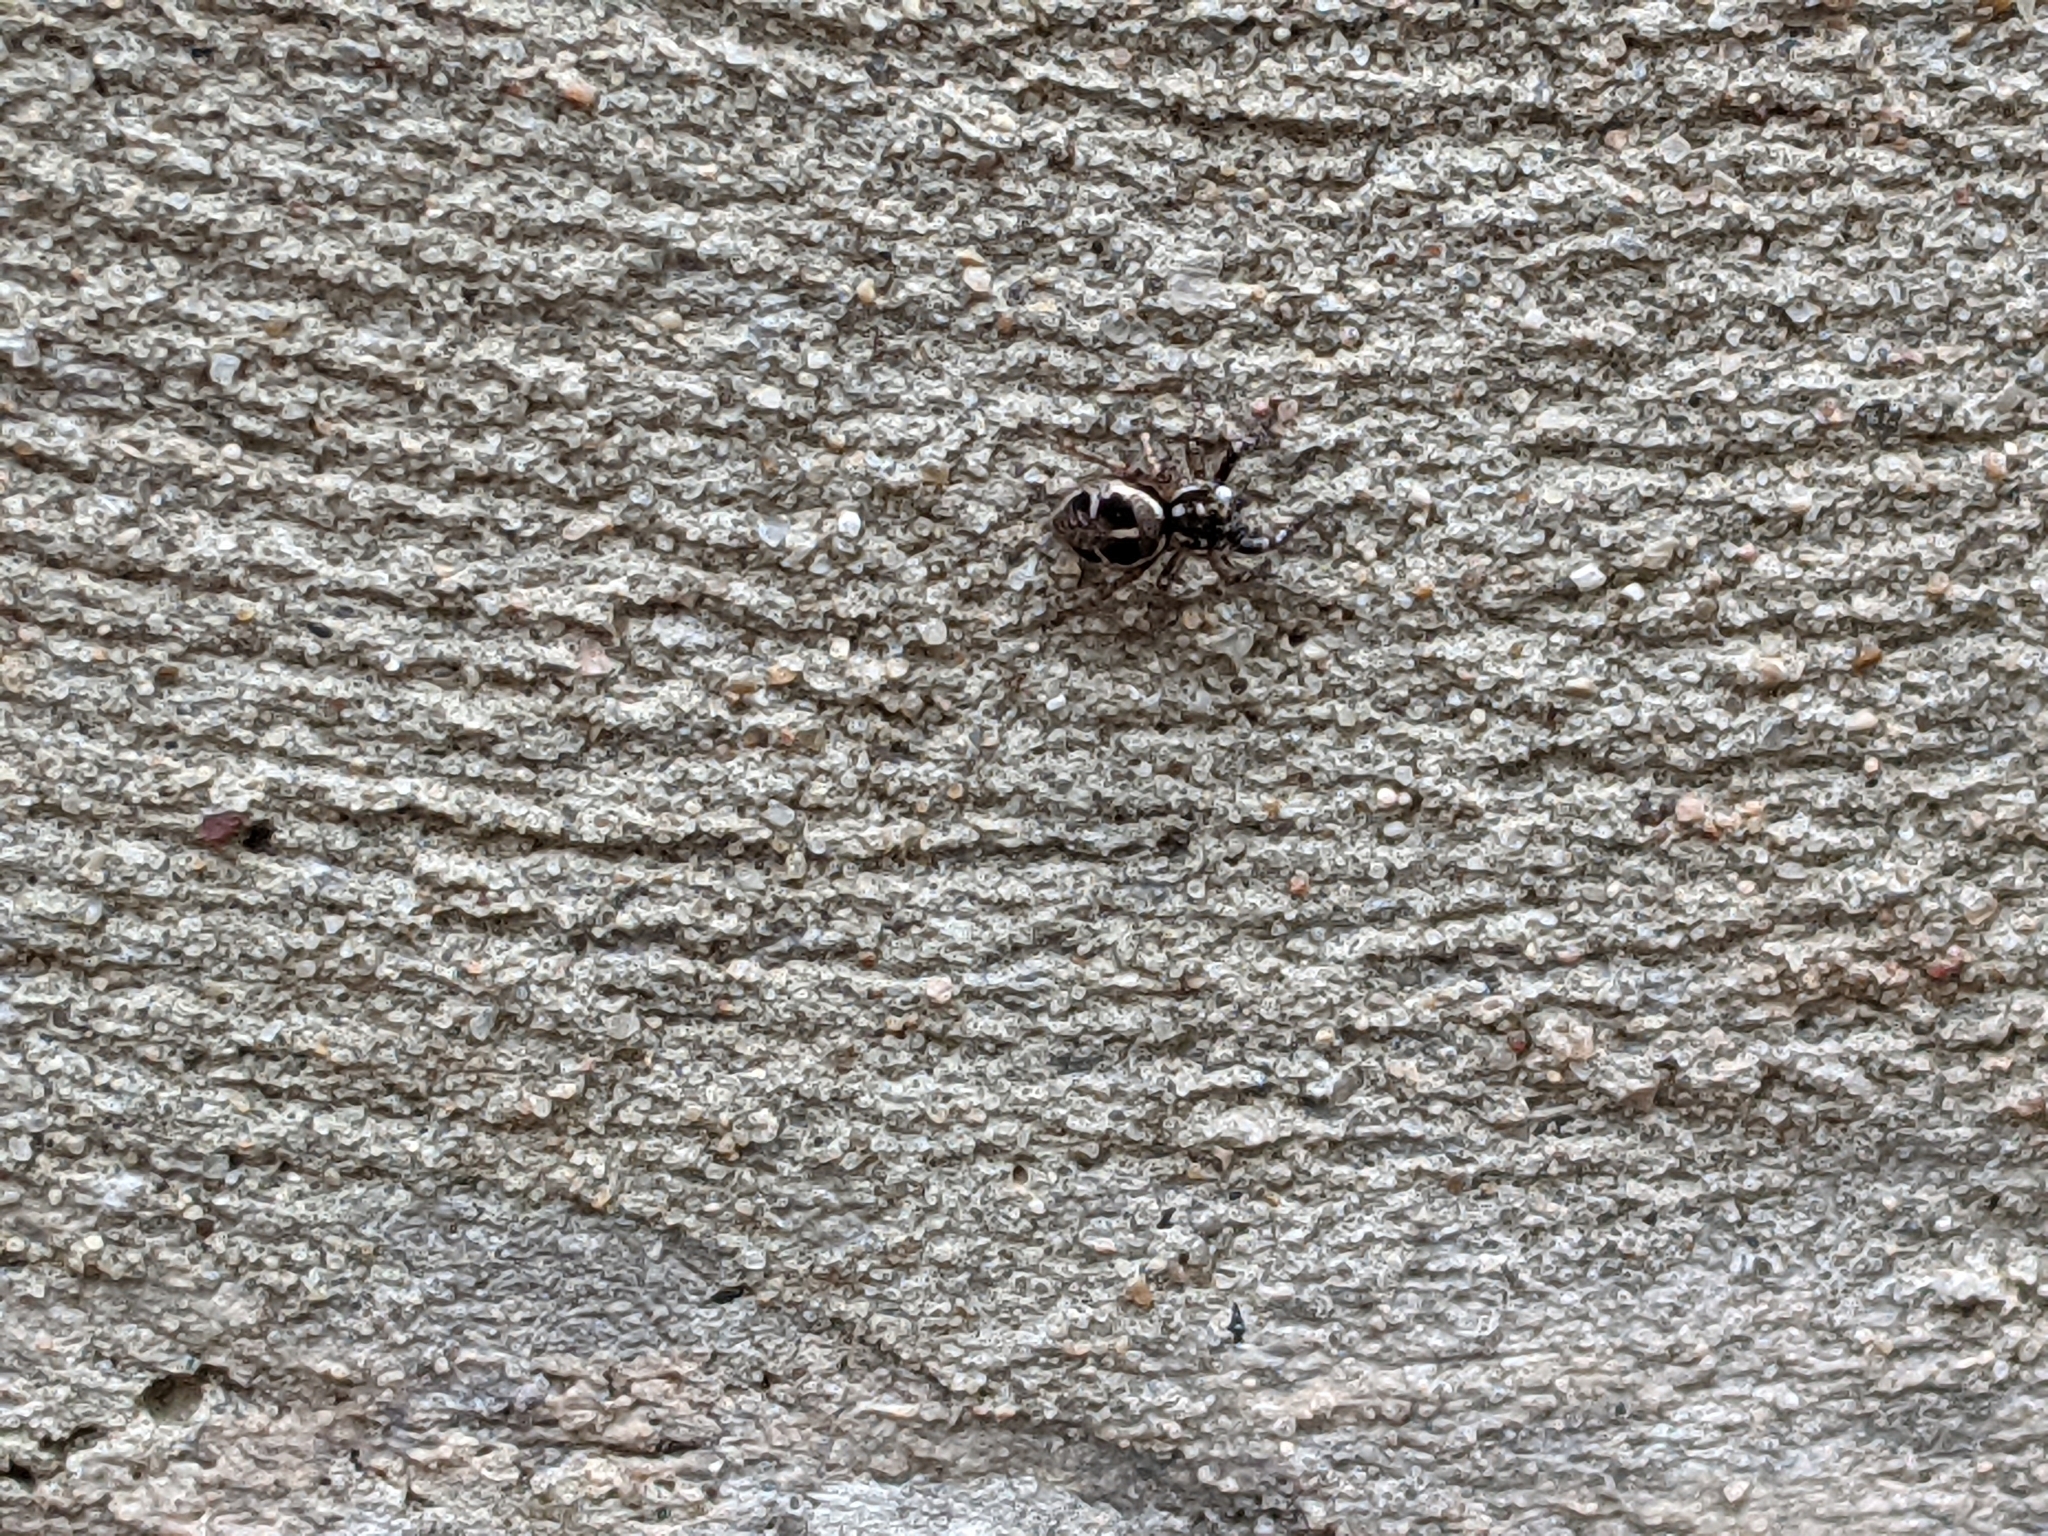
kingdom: Animalia
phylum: Arthropoda
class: Arachnida
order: Araneae
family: Salticidae
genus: Anasaitis
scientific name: Anasaitis canosa
